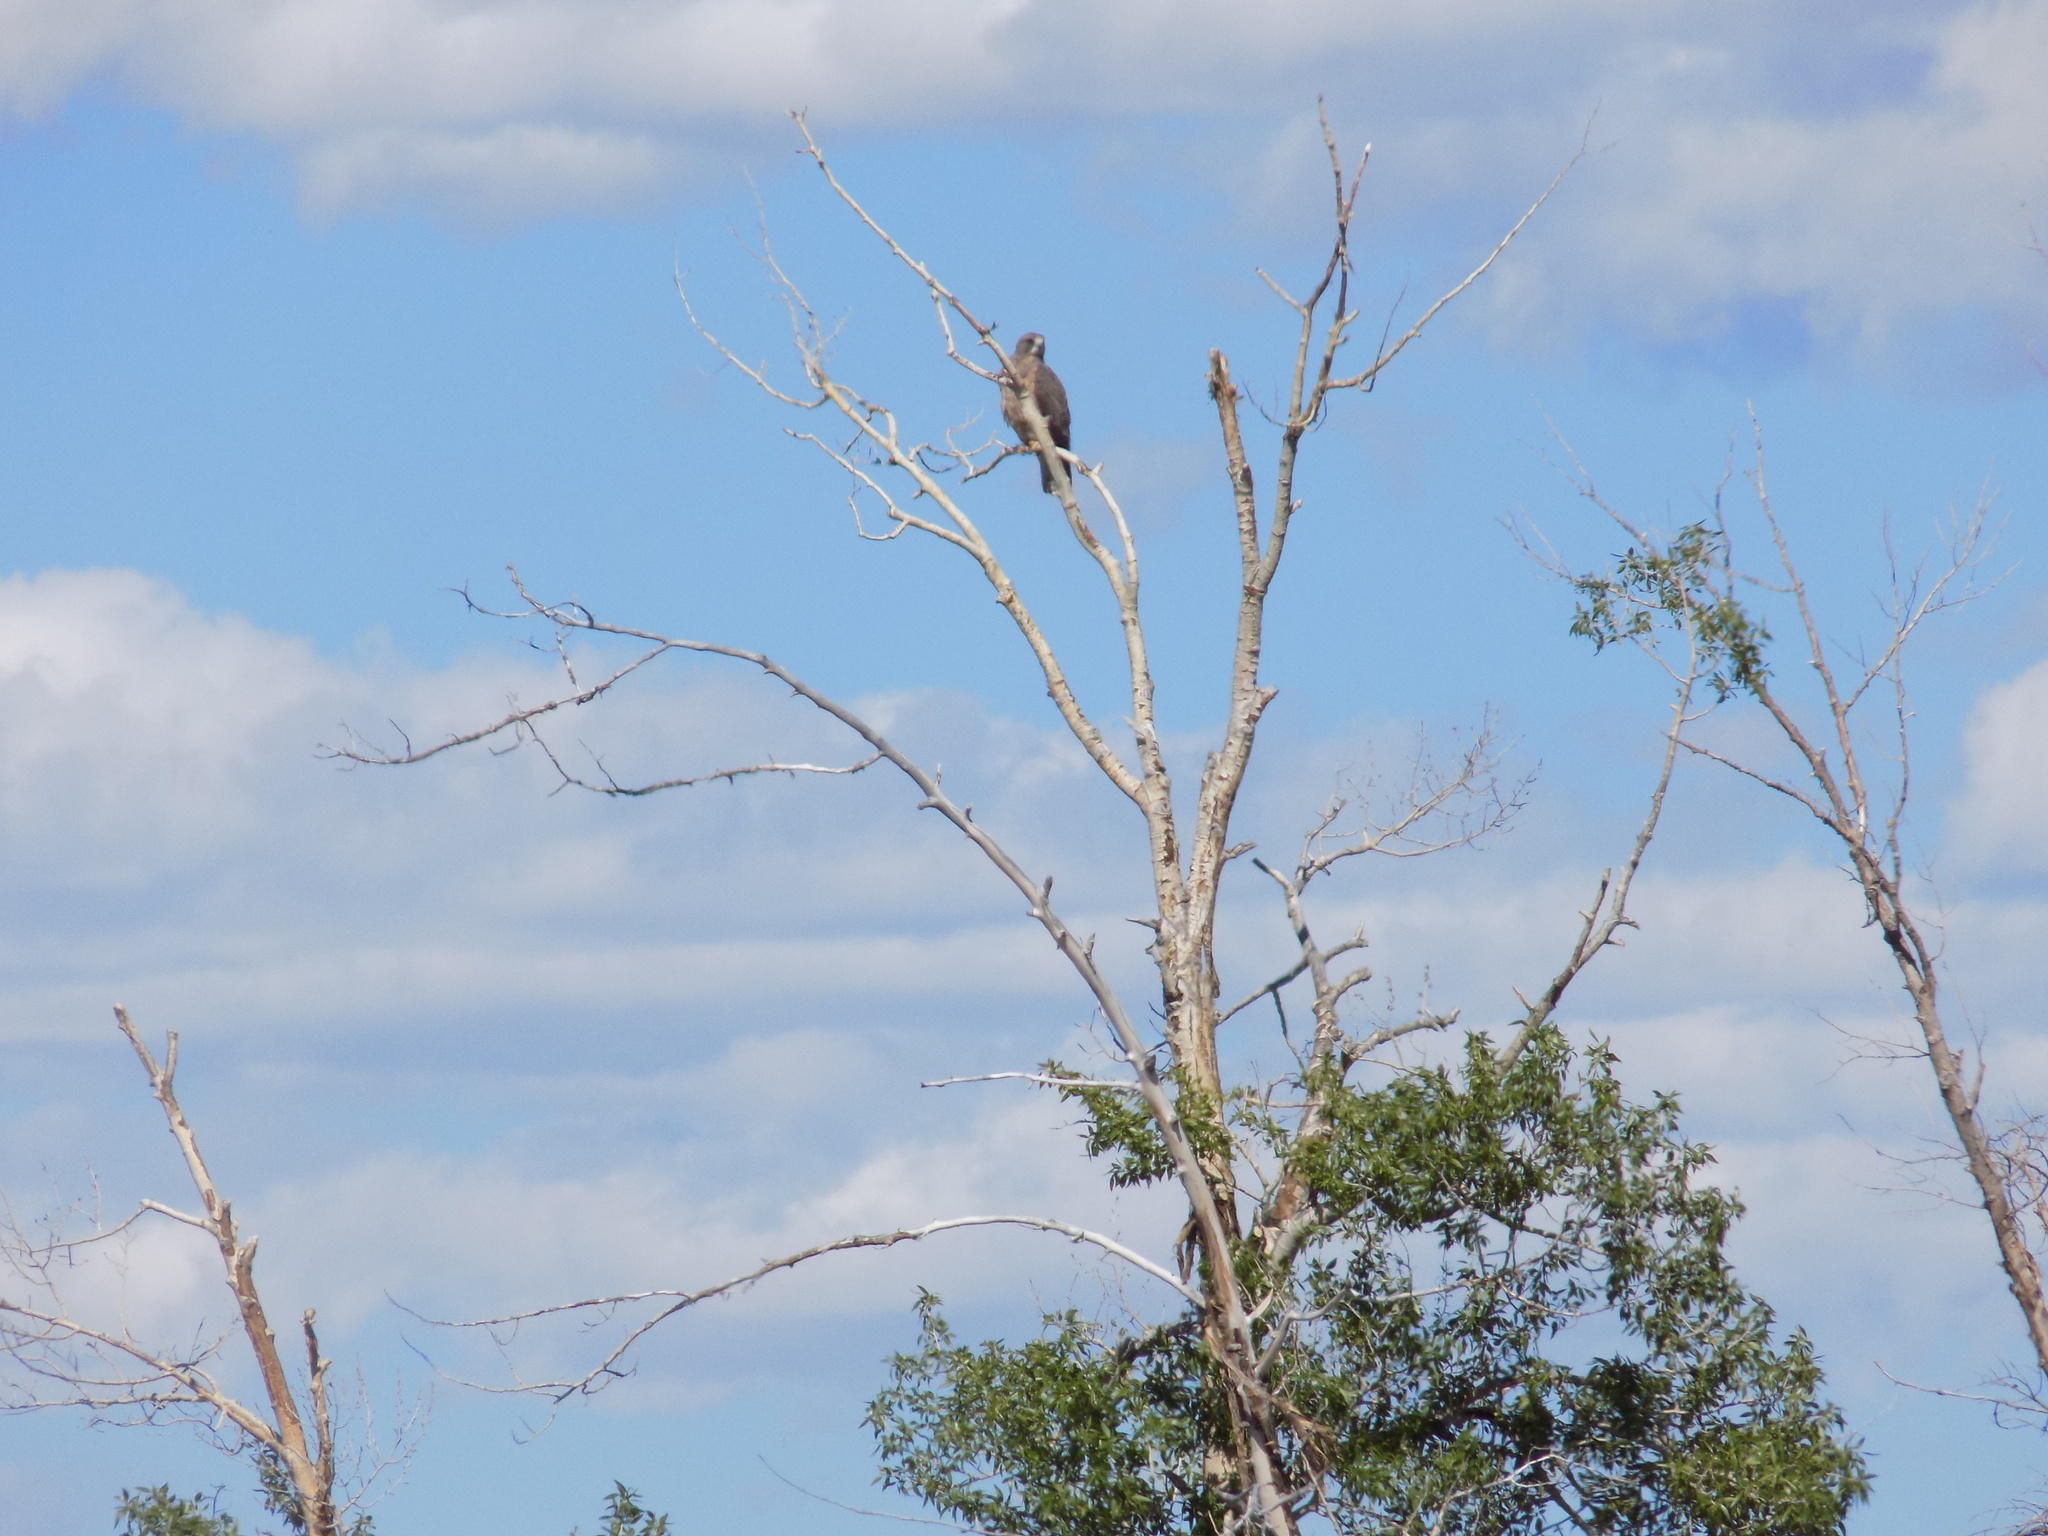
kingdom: Animalia
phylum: Chordata
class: Aves
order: Accipitriformes
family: Accipitridae
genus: Buteo
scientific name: Buteo swainsoni
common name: Swainson's hawk
